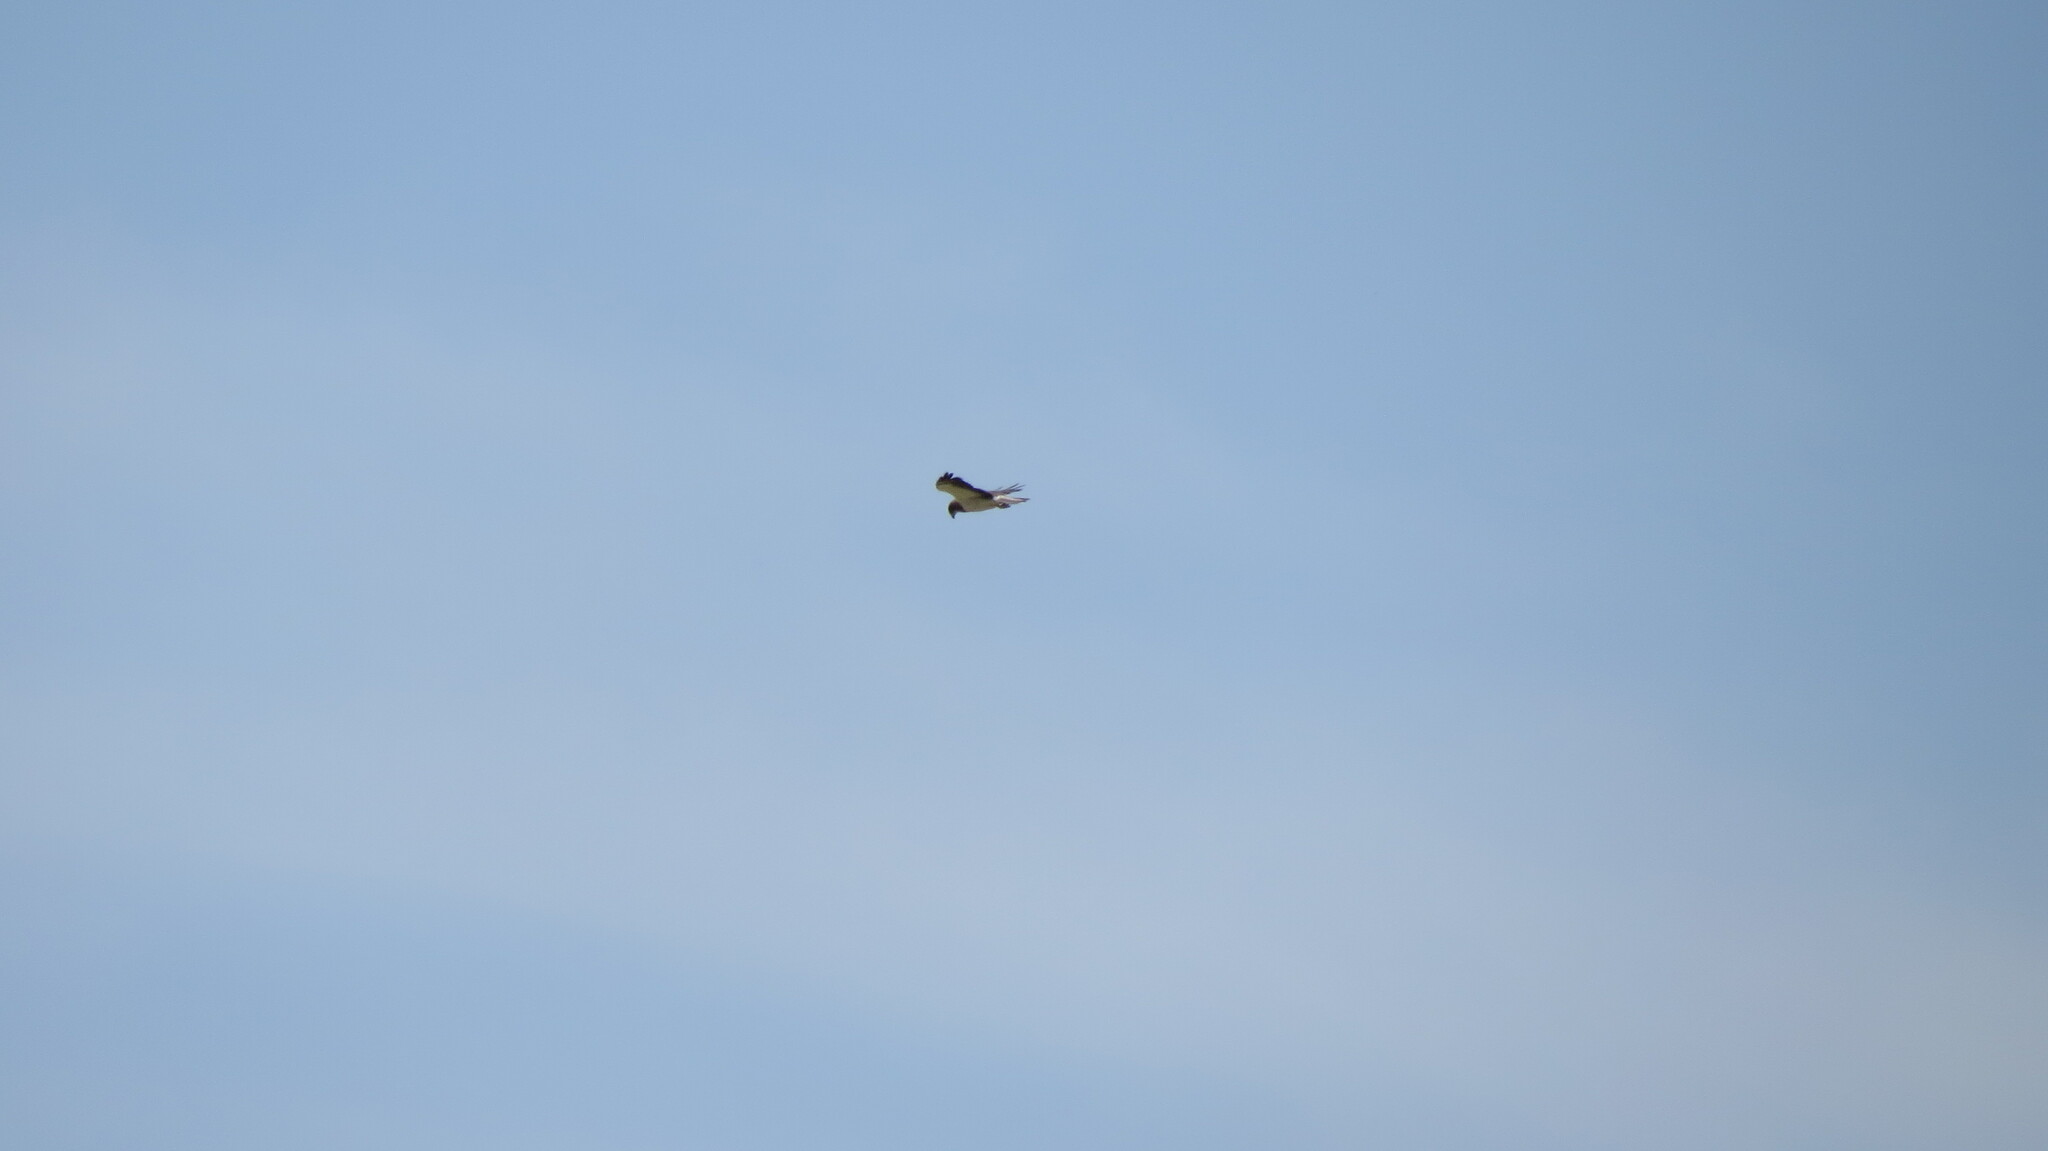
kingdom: Animalia
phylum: Chordata
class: Aves
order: Accipitriformes
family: Accipitridae
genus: Buteo
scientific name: Buteo swainsoni
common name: Swainson's hawk
